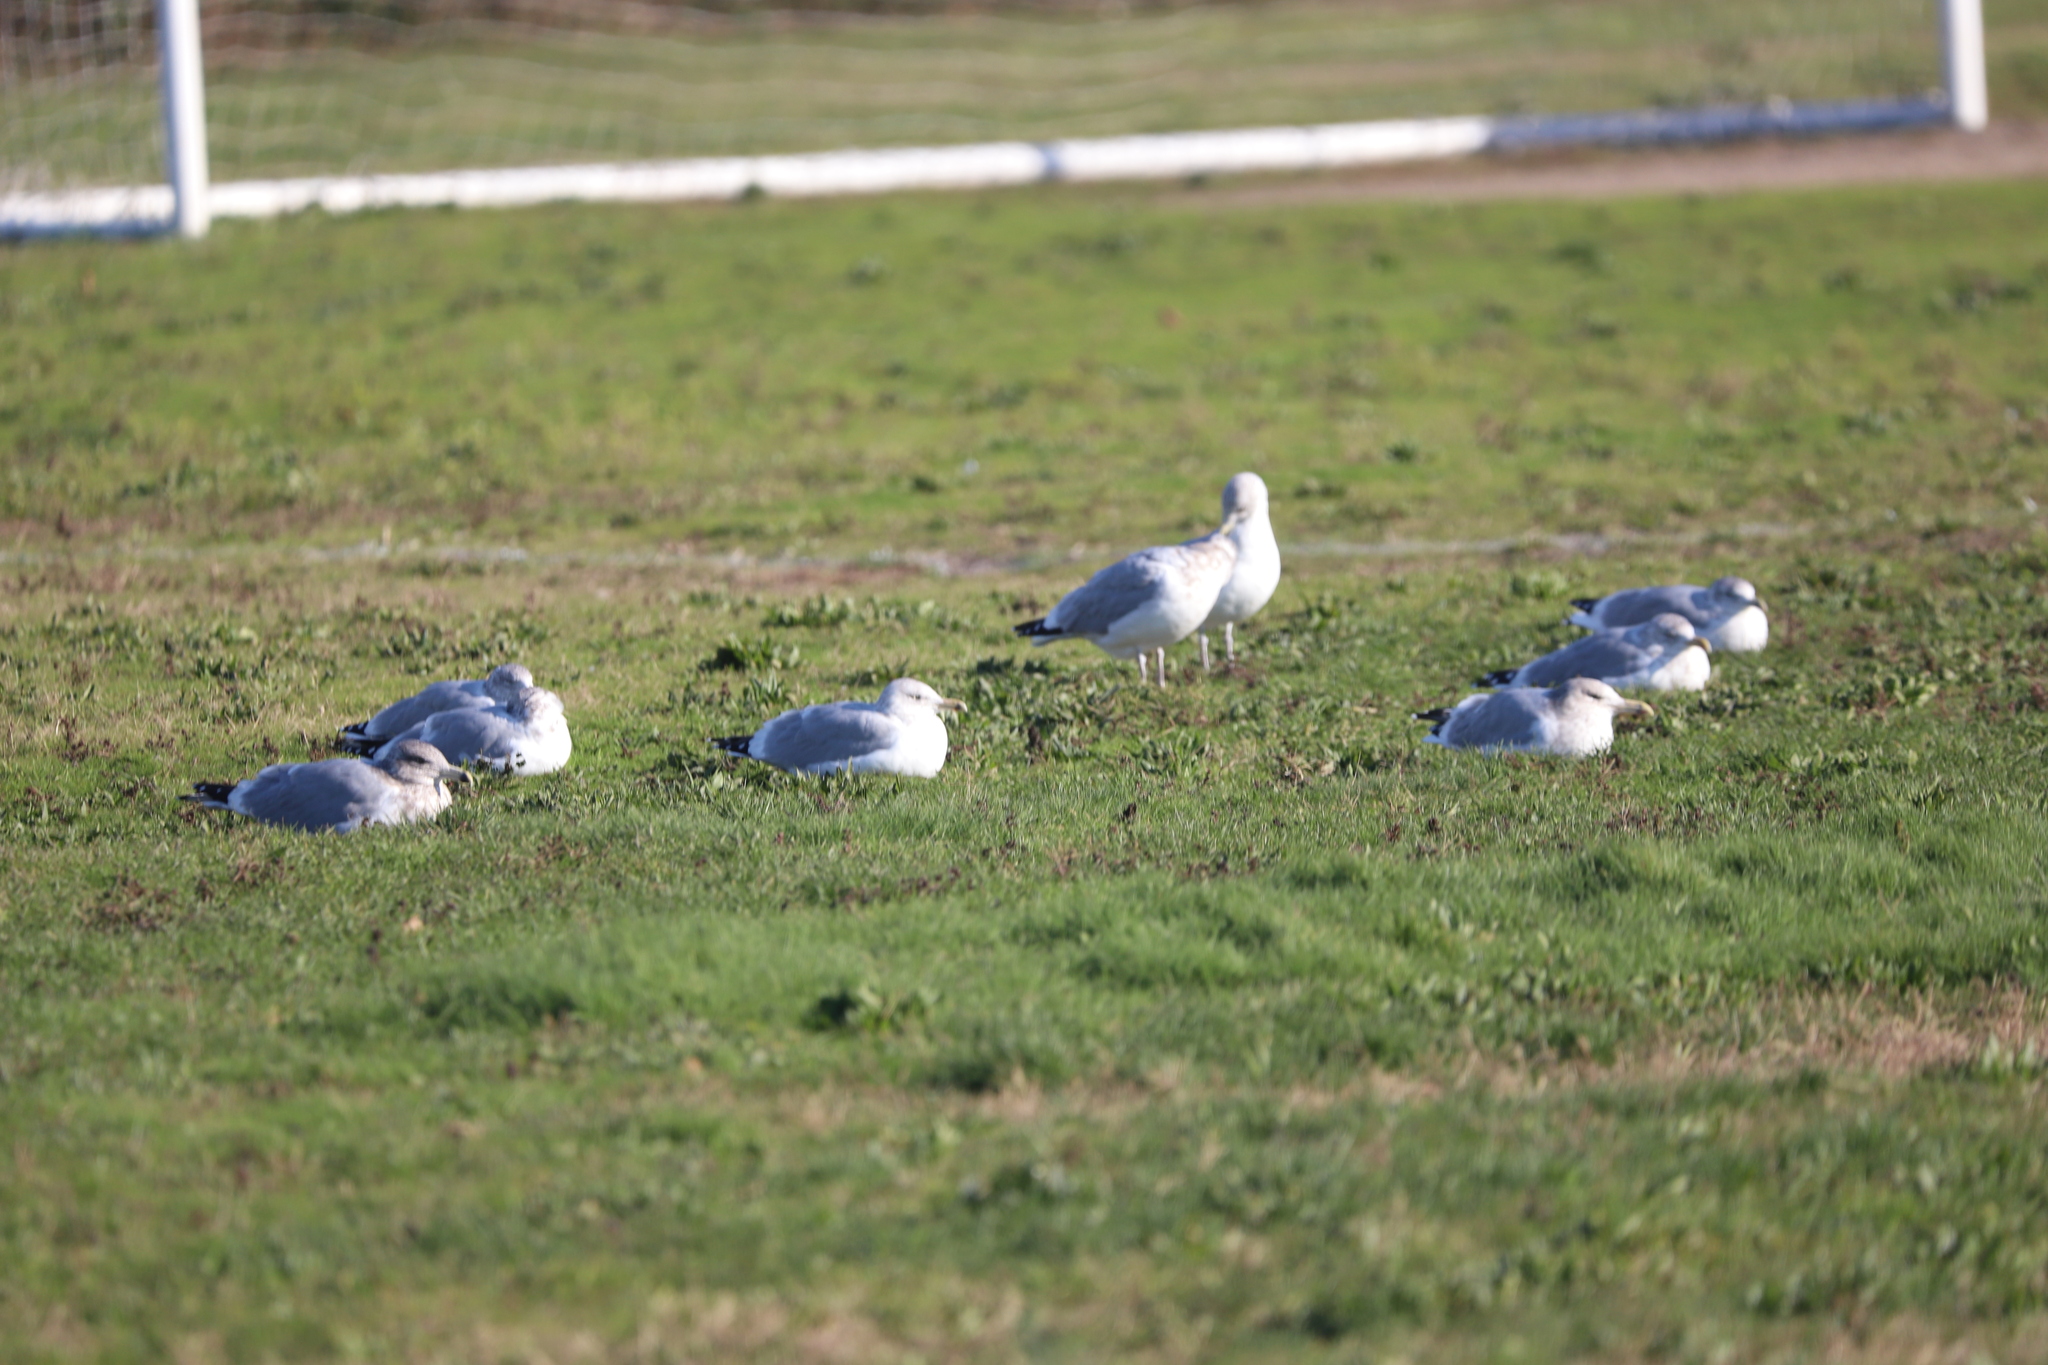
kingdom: Animalia
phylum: Chordata
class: Aves
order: Charadriiformes
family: Laridae
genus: Larus
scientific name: Larus argentatus
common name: Herring gull
